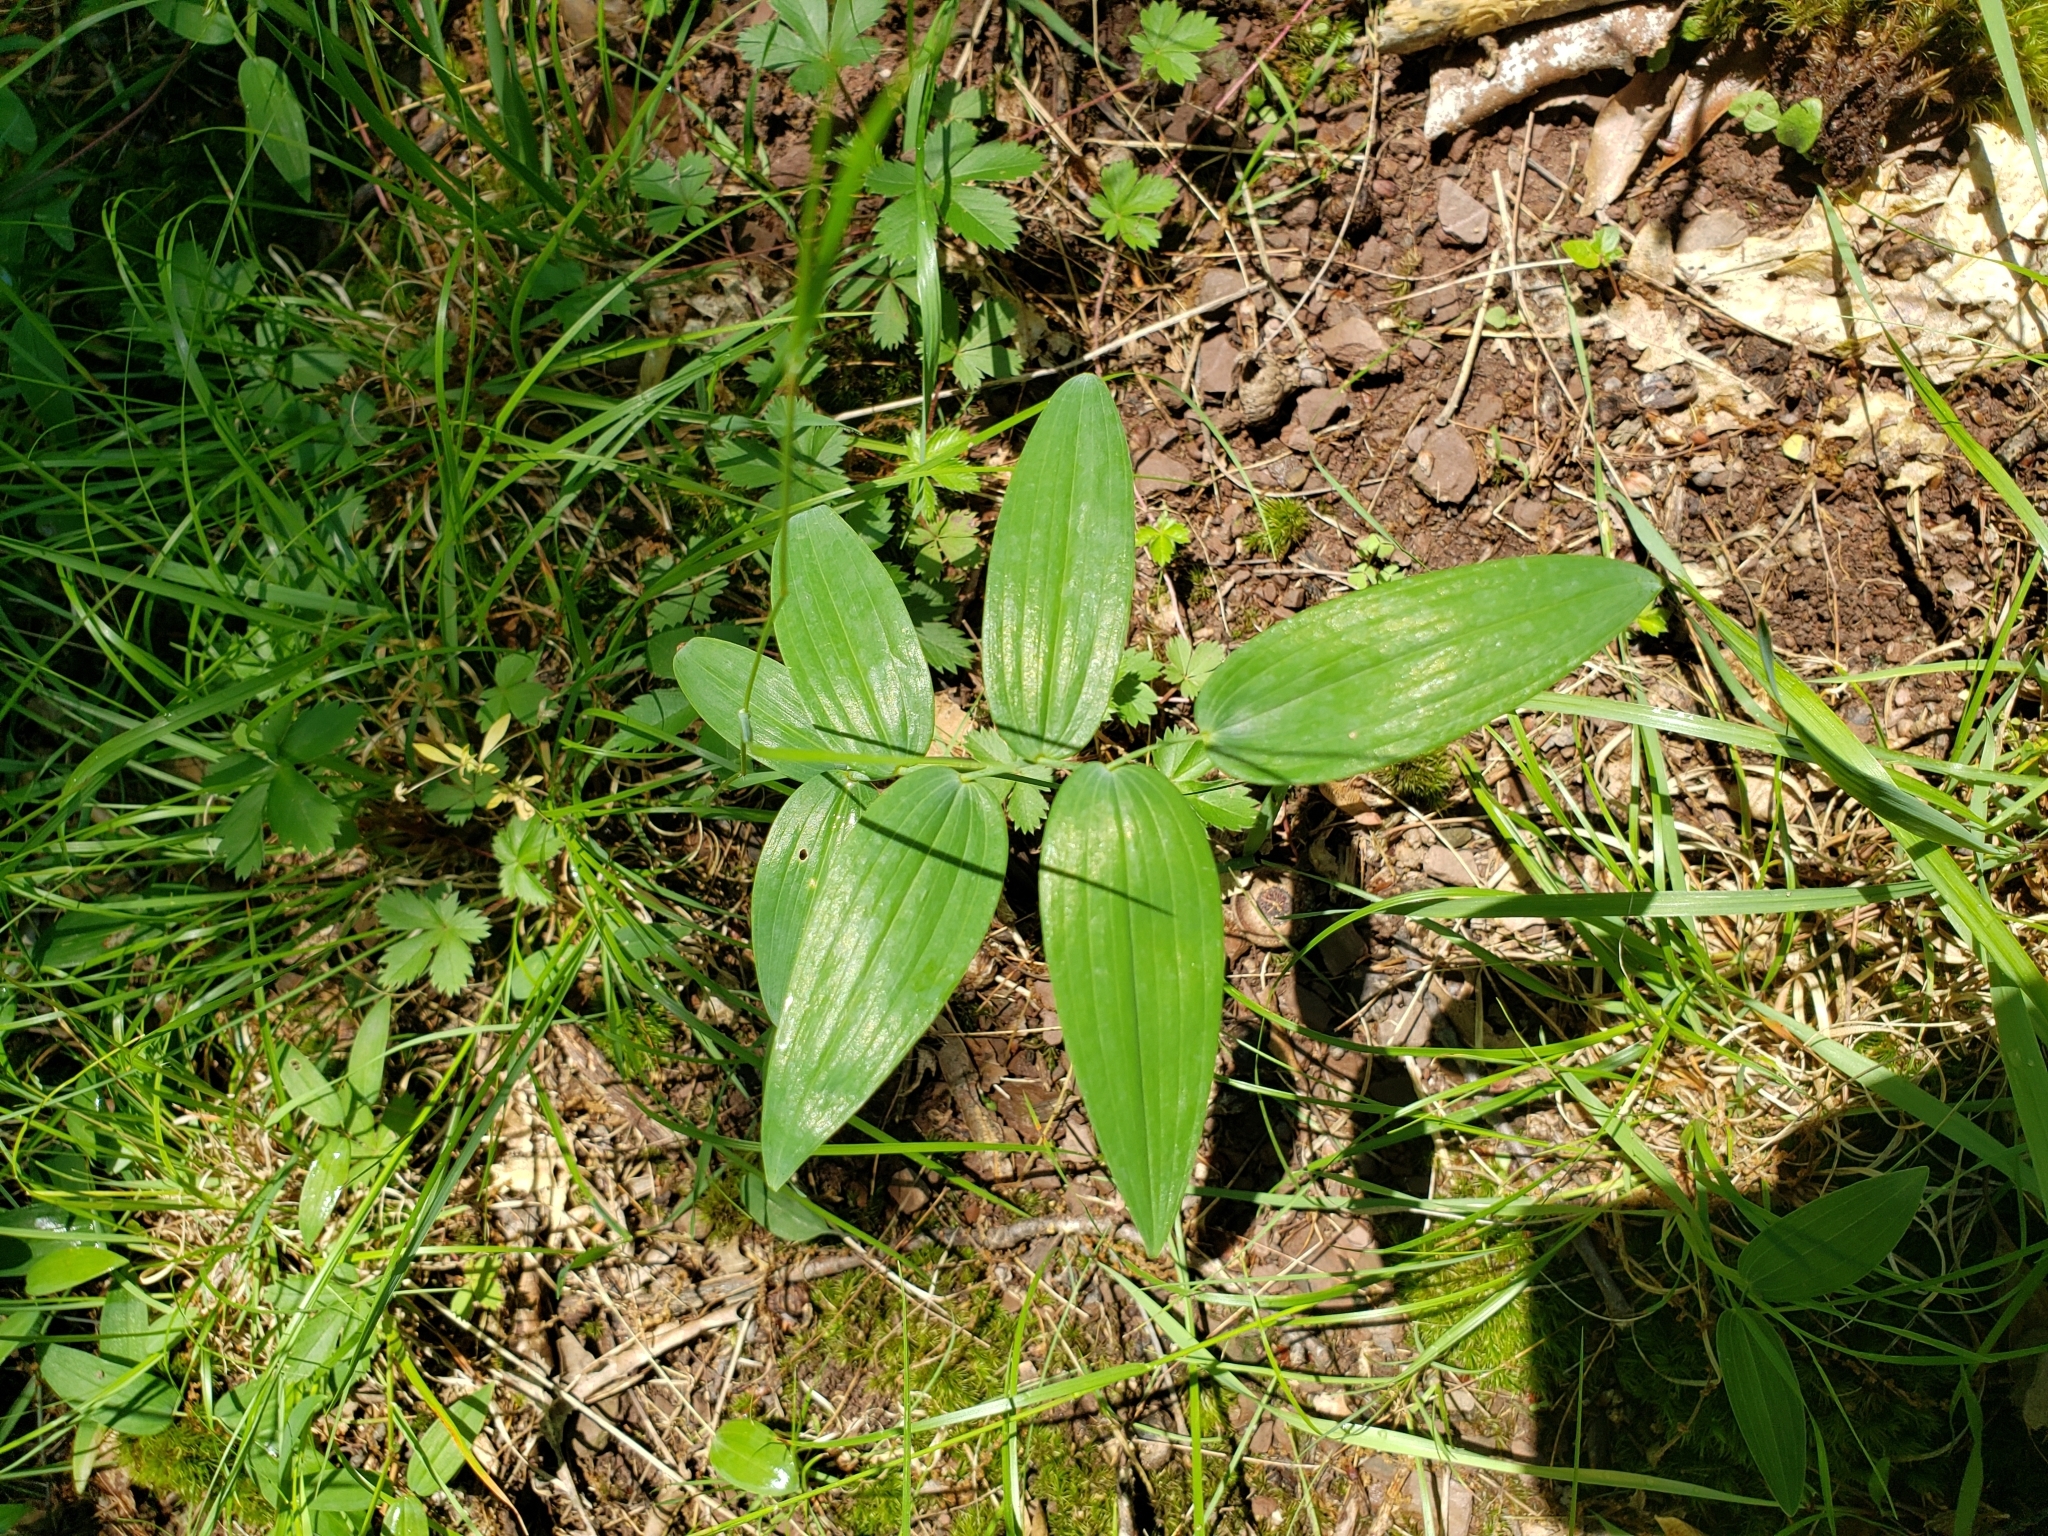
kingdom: Plantae
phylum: Tracheophyta
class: Liliopsida
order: Asparagales
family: Asparagaceae
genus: Polygonatum
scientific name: Polygonatum biflorum
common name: American solomon's-seal
